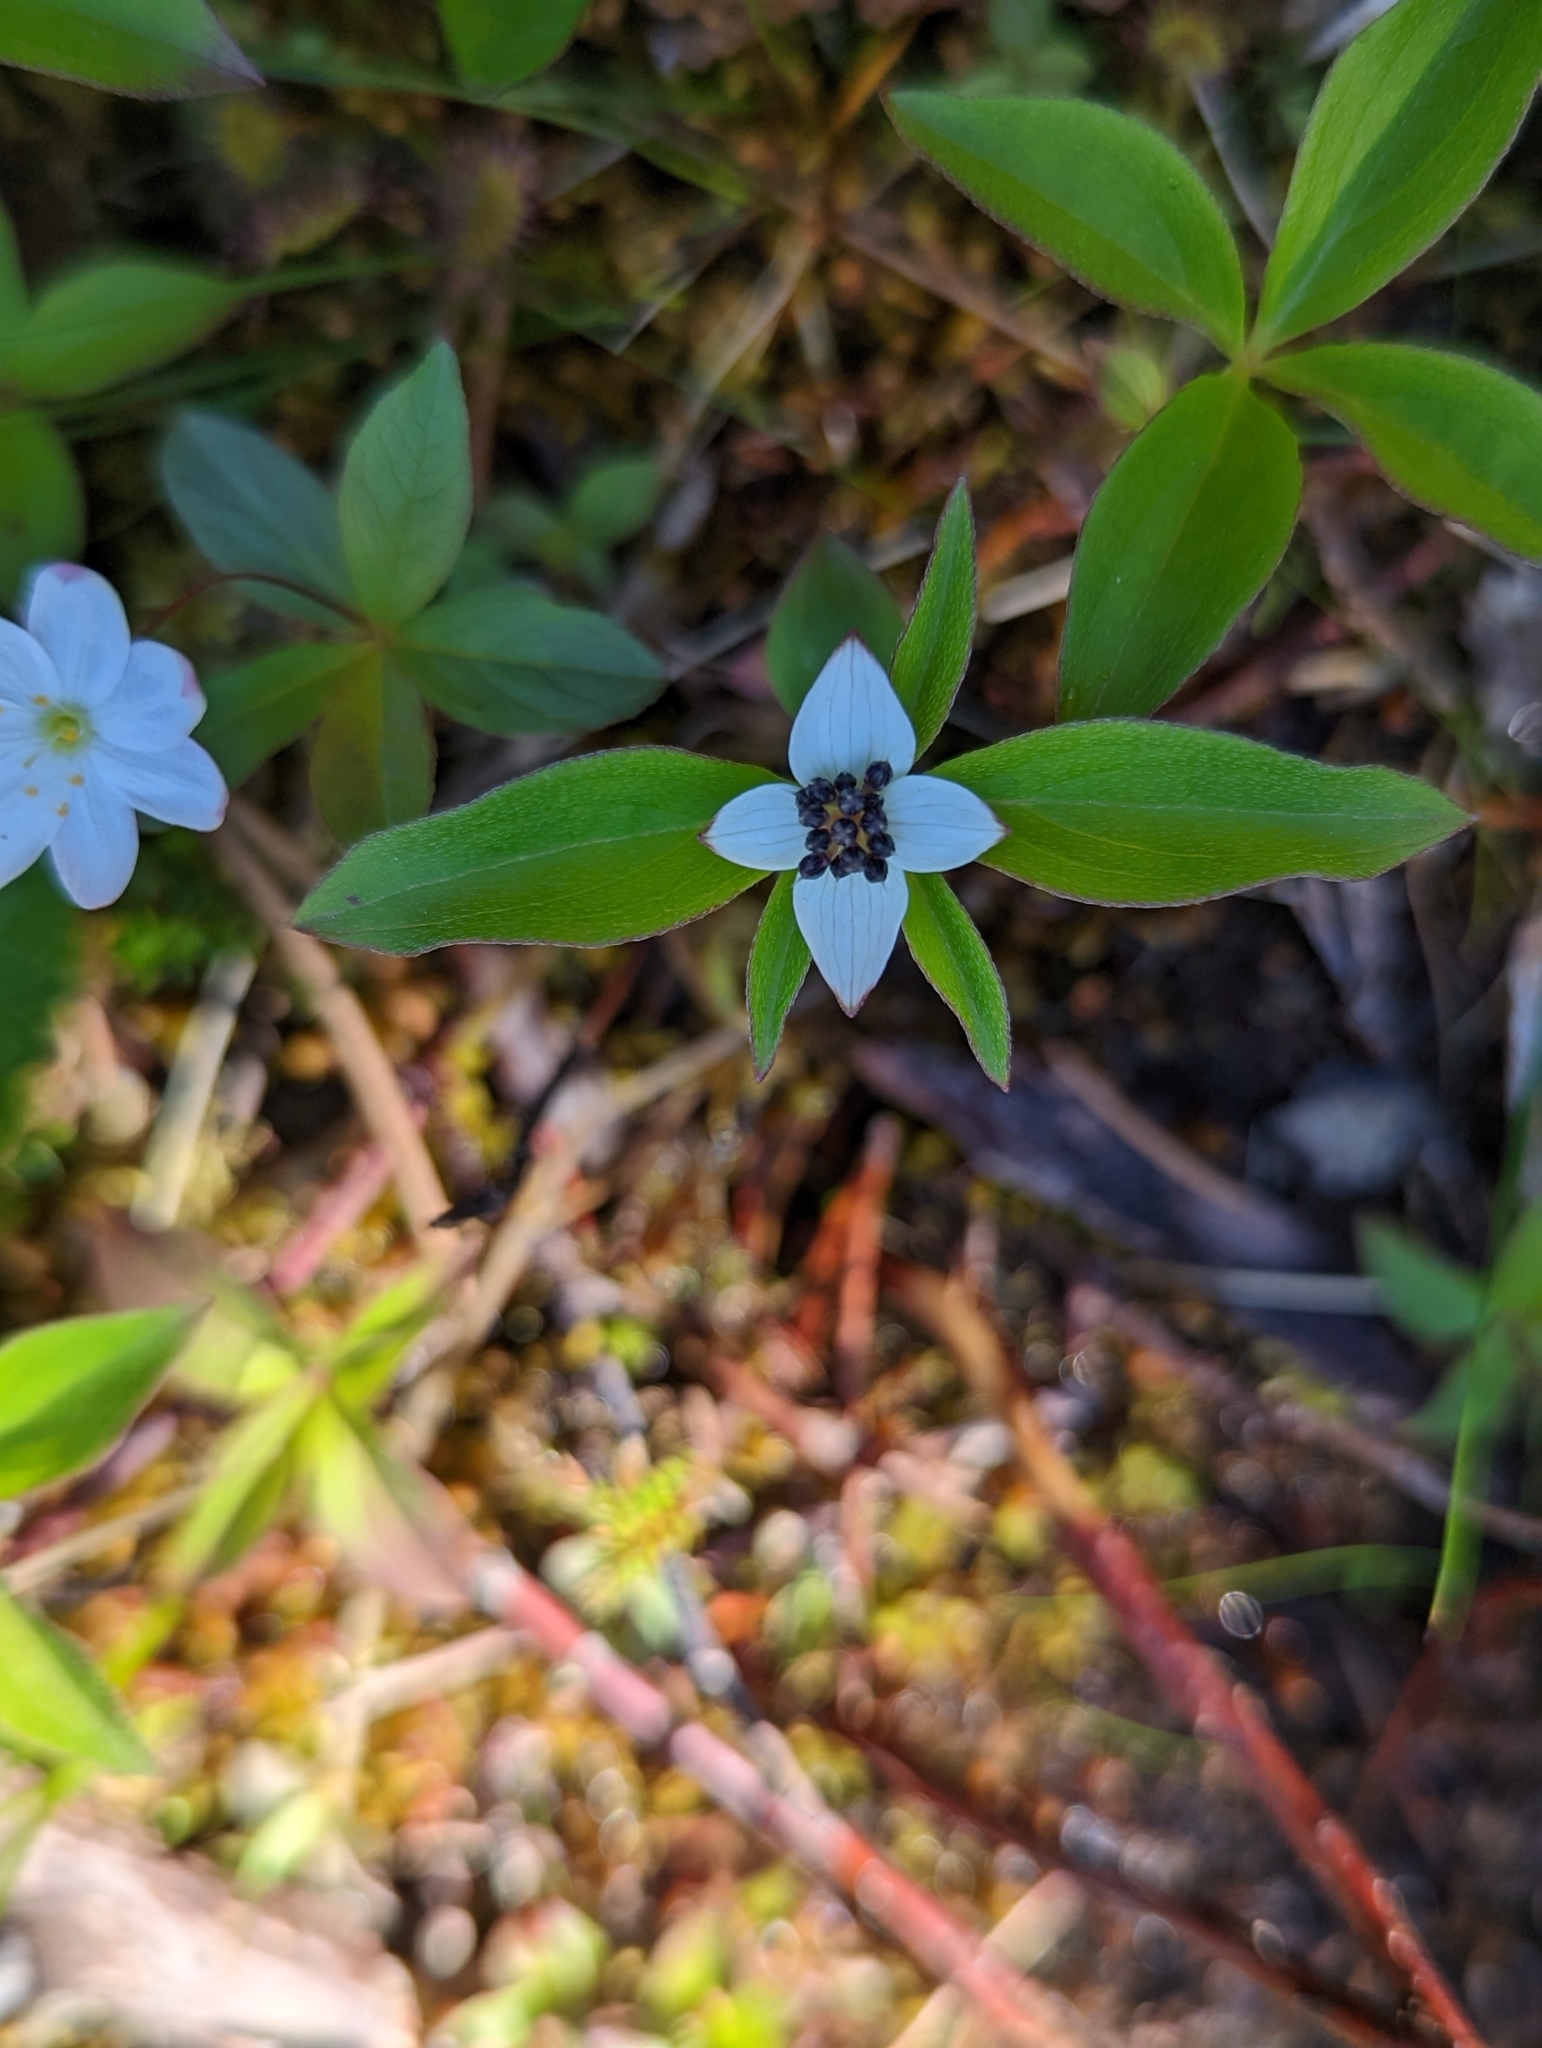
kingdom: Plantae
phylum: Tracheophyta
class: Magnoliopsida
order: Cornales
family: Cornaceae
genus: Cornus
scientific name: Cornus unalaschkensis
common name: Alaska bunchberry
